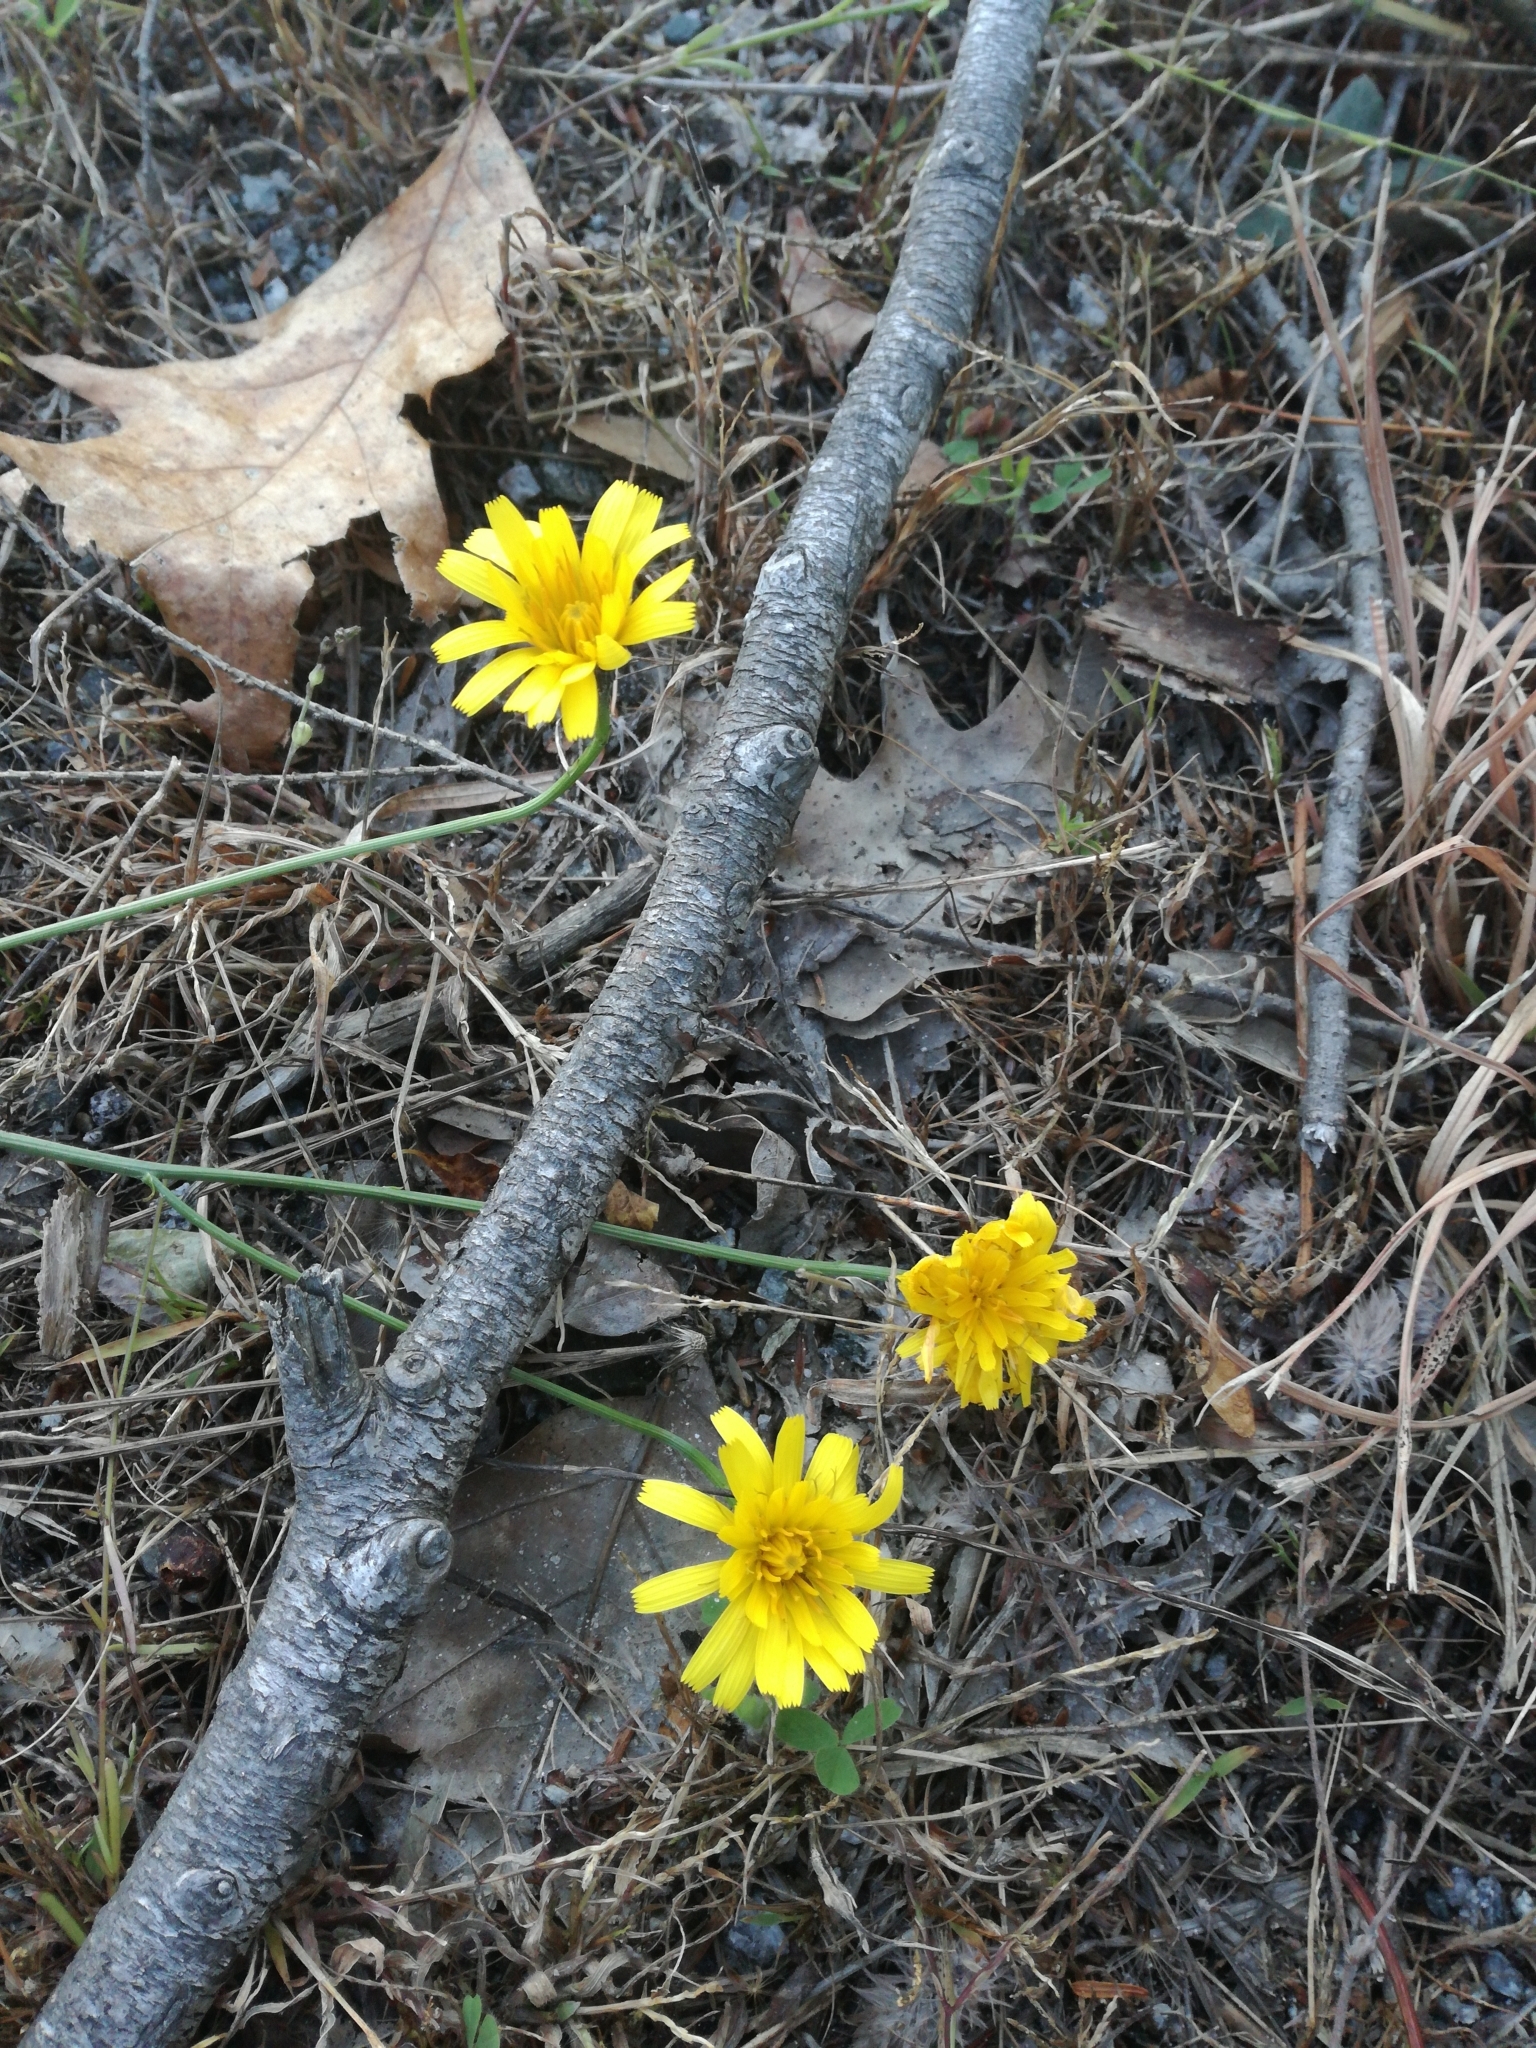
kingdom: Plantae
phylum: Tracheophyta
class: Magnoliopsida
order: Asterales
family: Asteraceae
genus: Scorzoneroides
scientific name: Scorzoneroides autumnalis
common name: Autumn hawkbit
